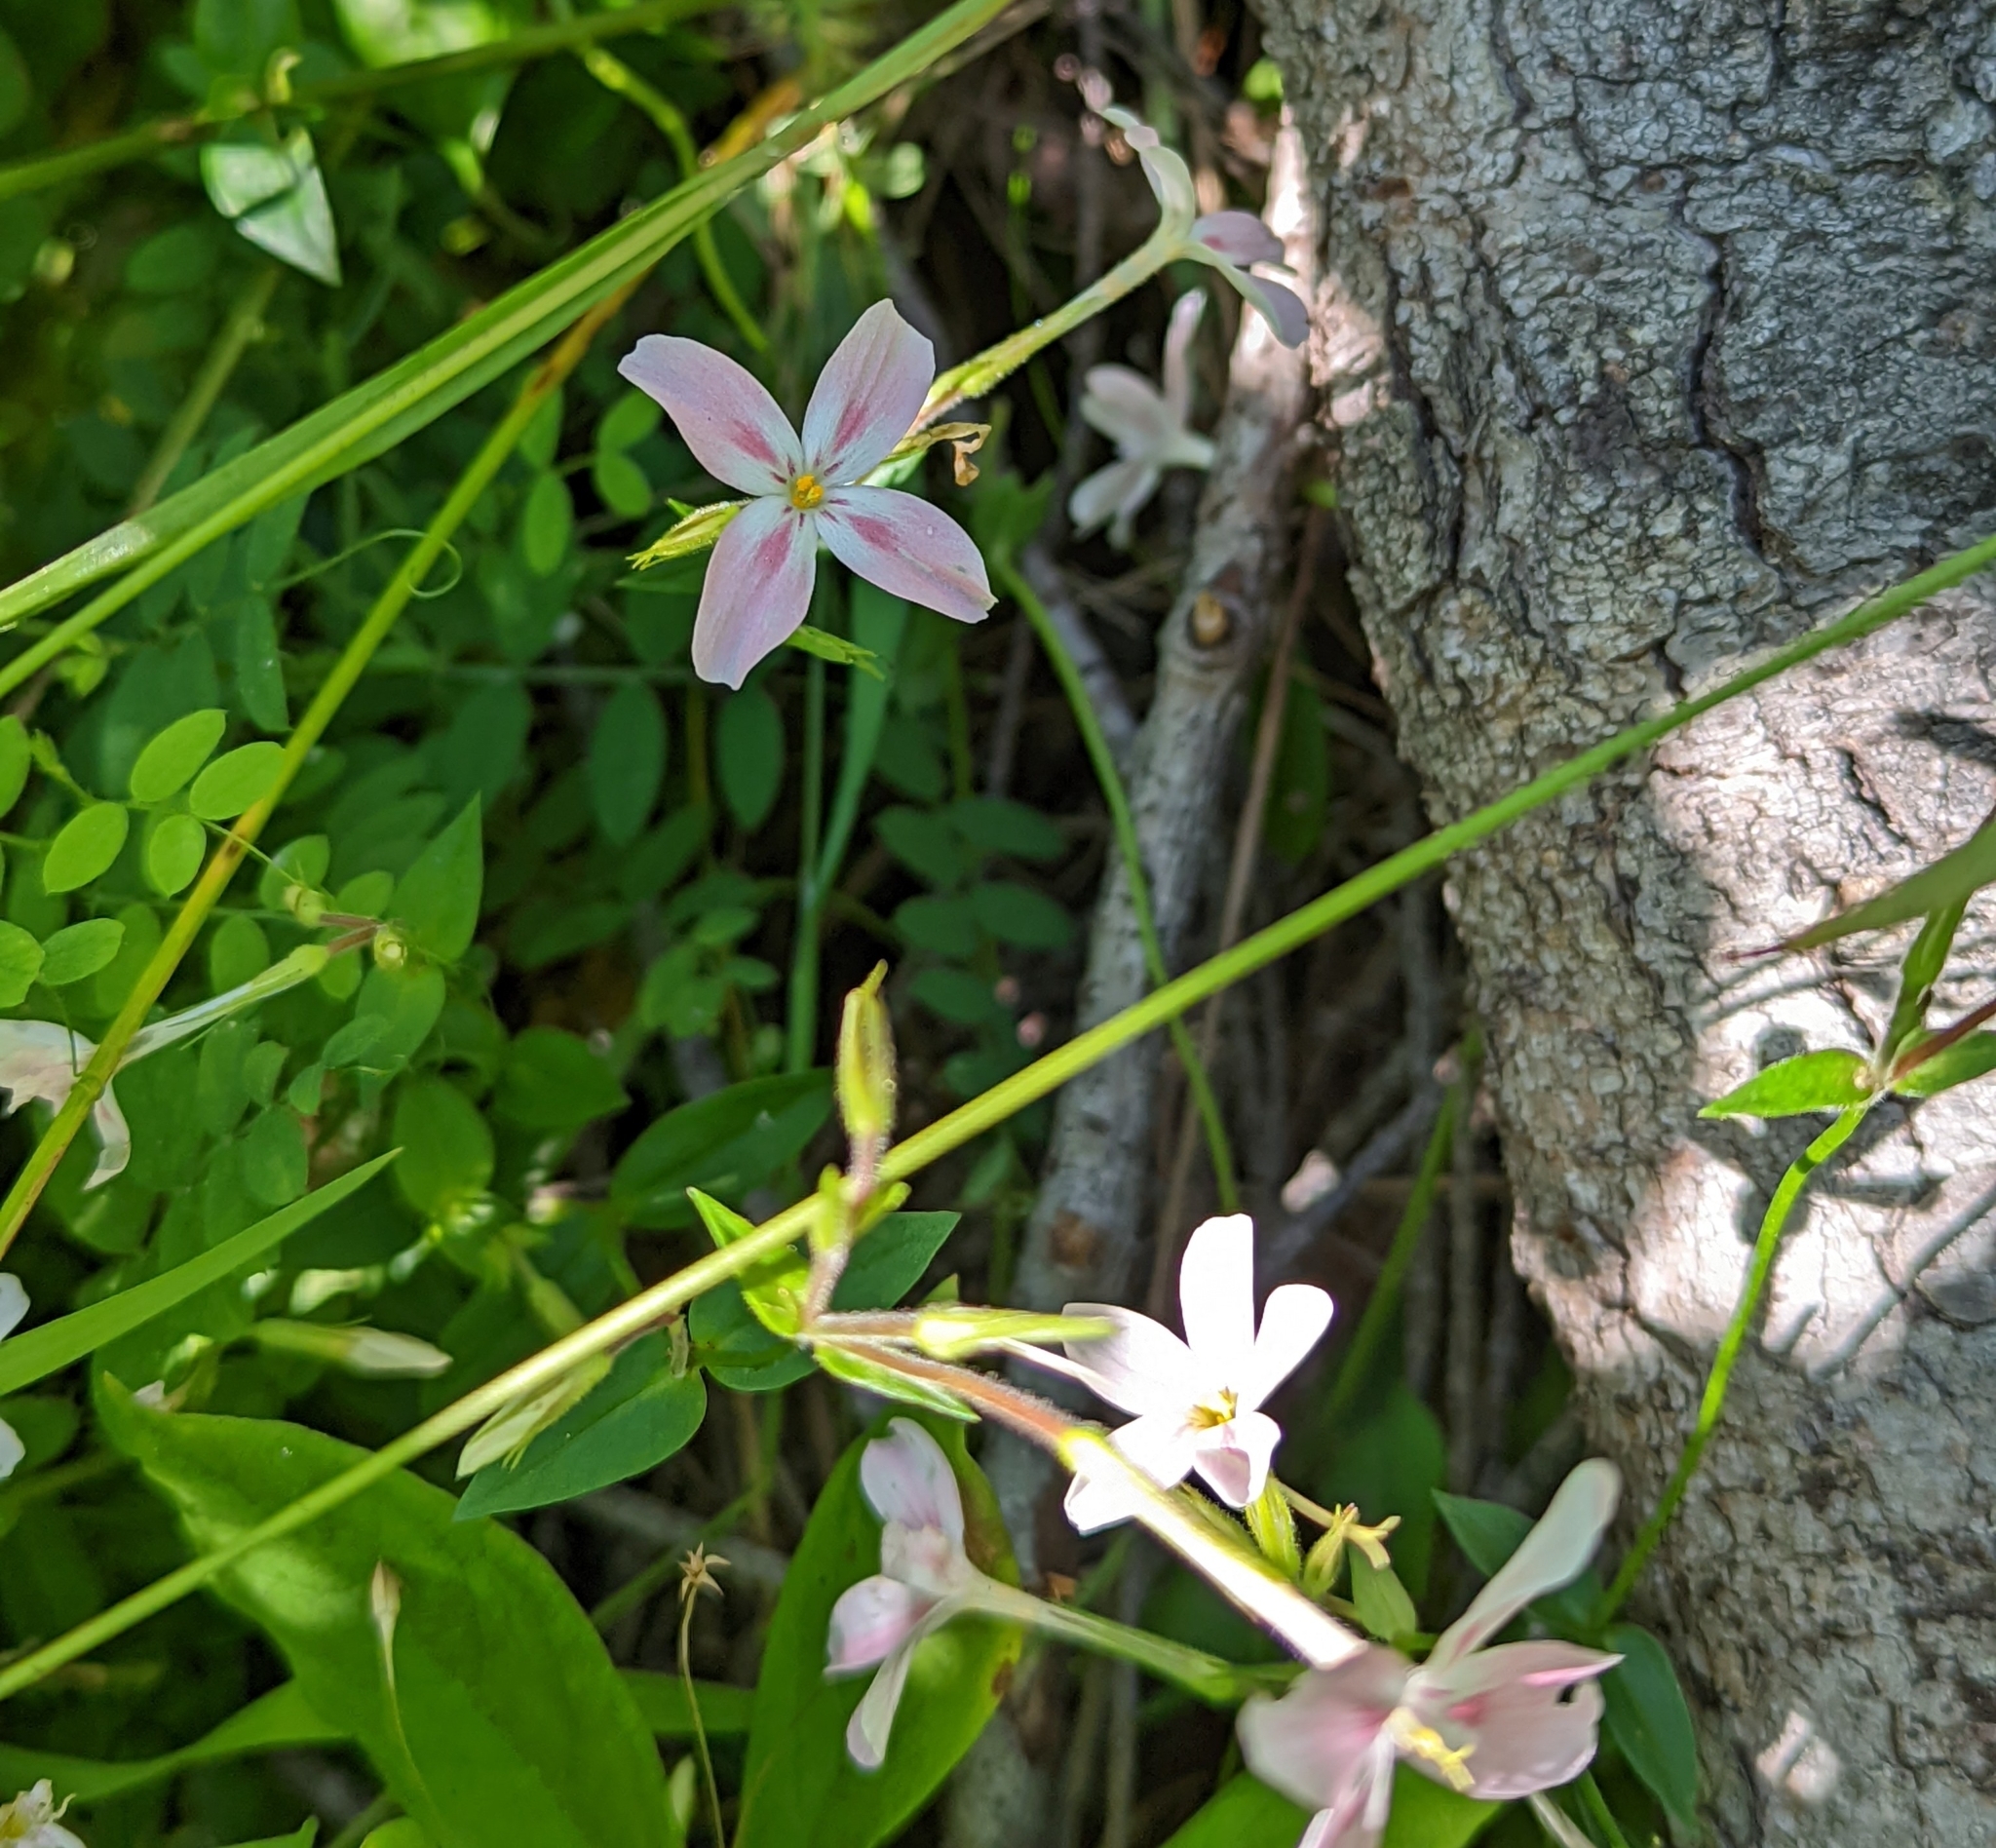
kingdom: Plantae
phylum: Tracheophyta
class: Magnoliopsida
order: Ericales
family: Polemoniaceae
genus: Phlox
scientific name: Phlox adsurgens
